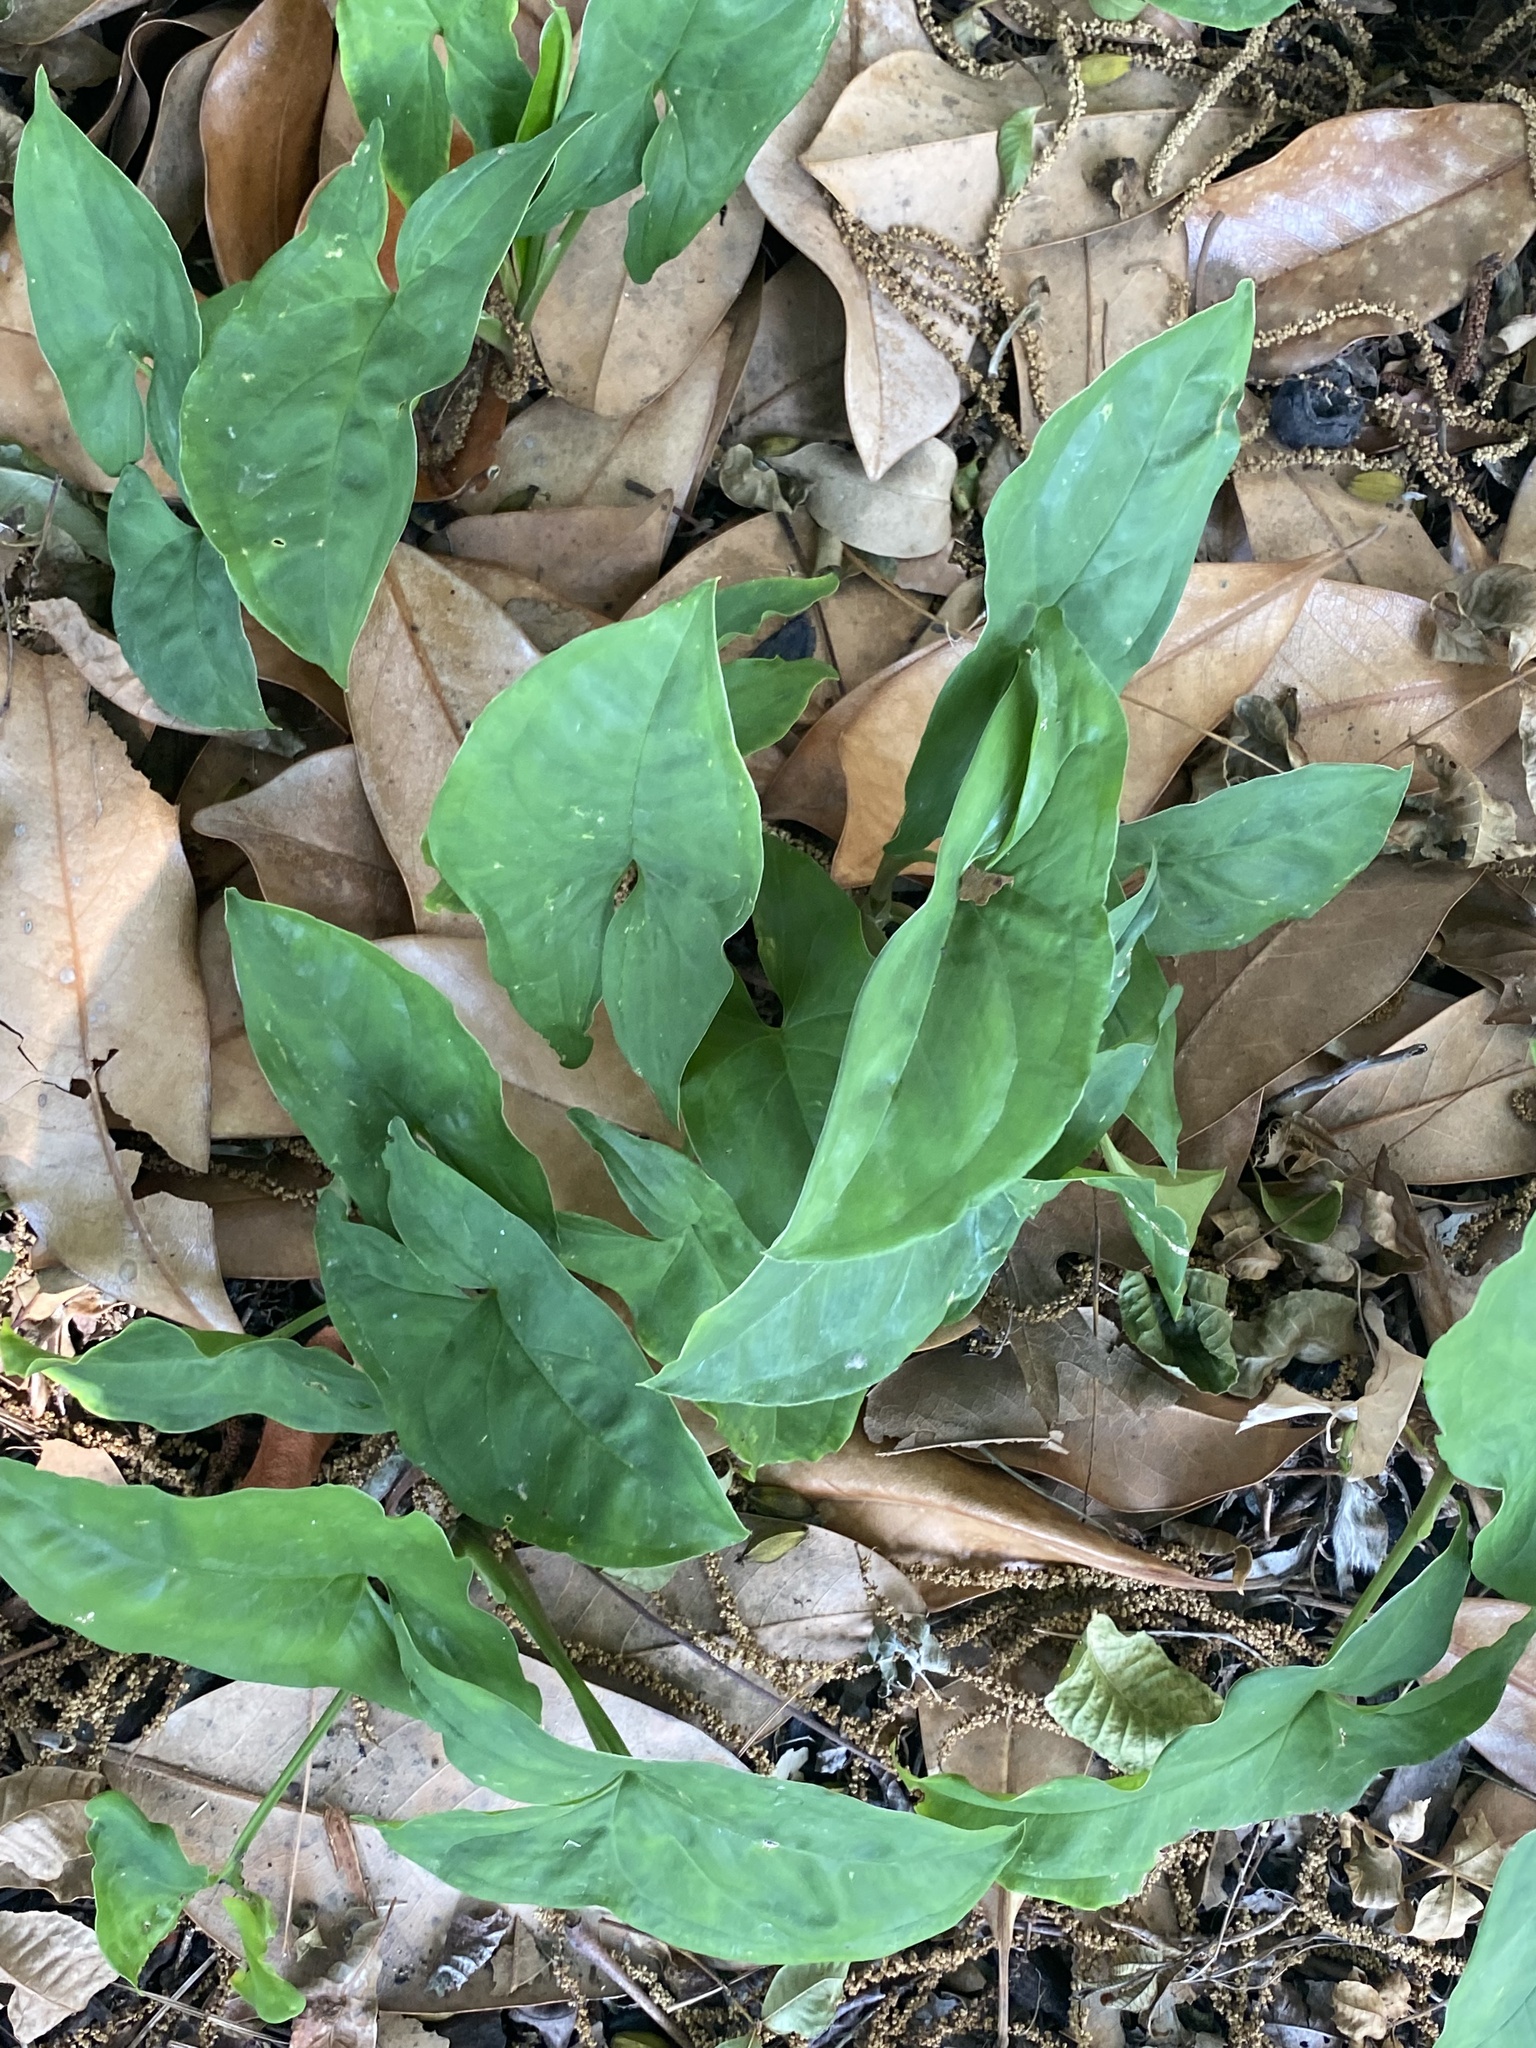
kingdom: Plantae
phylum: Tracheophyta
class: Liliopsida
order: Alismatales
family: Araceae
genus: Syngonium
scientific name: Syngonium podophyllum
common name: American evergreen
